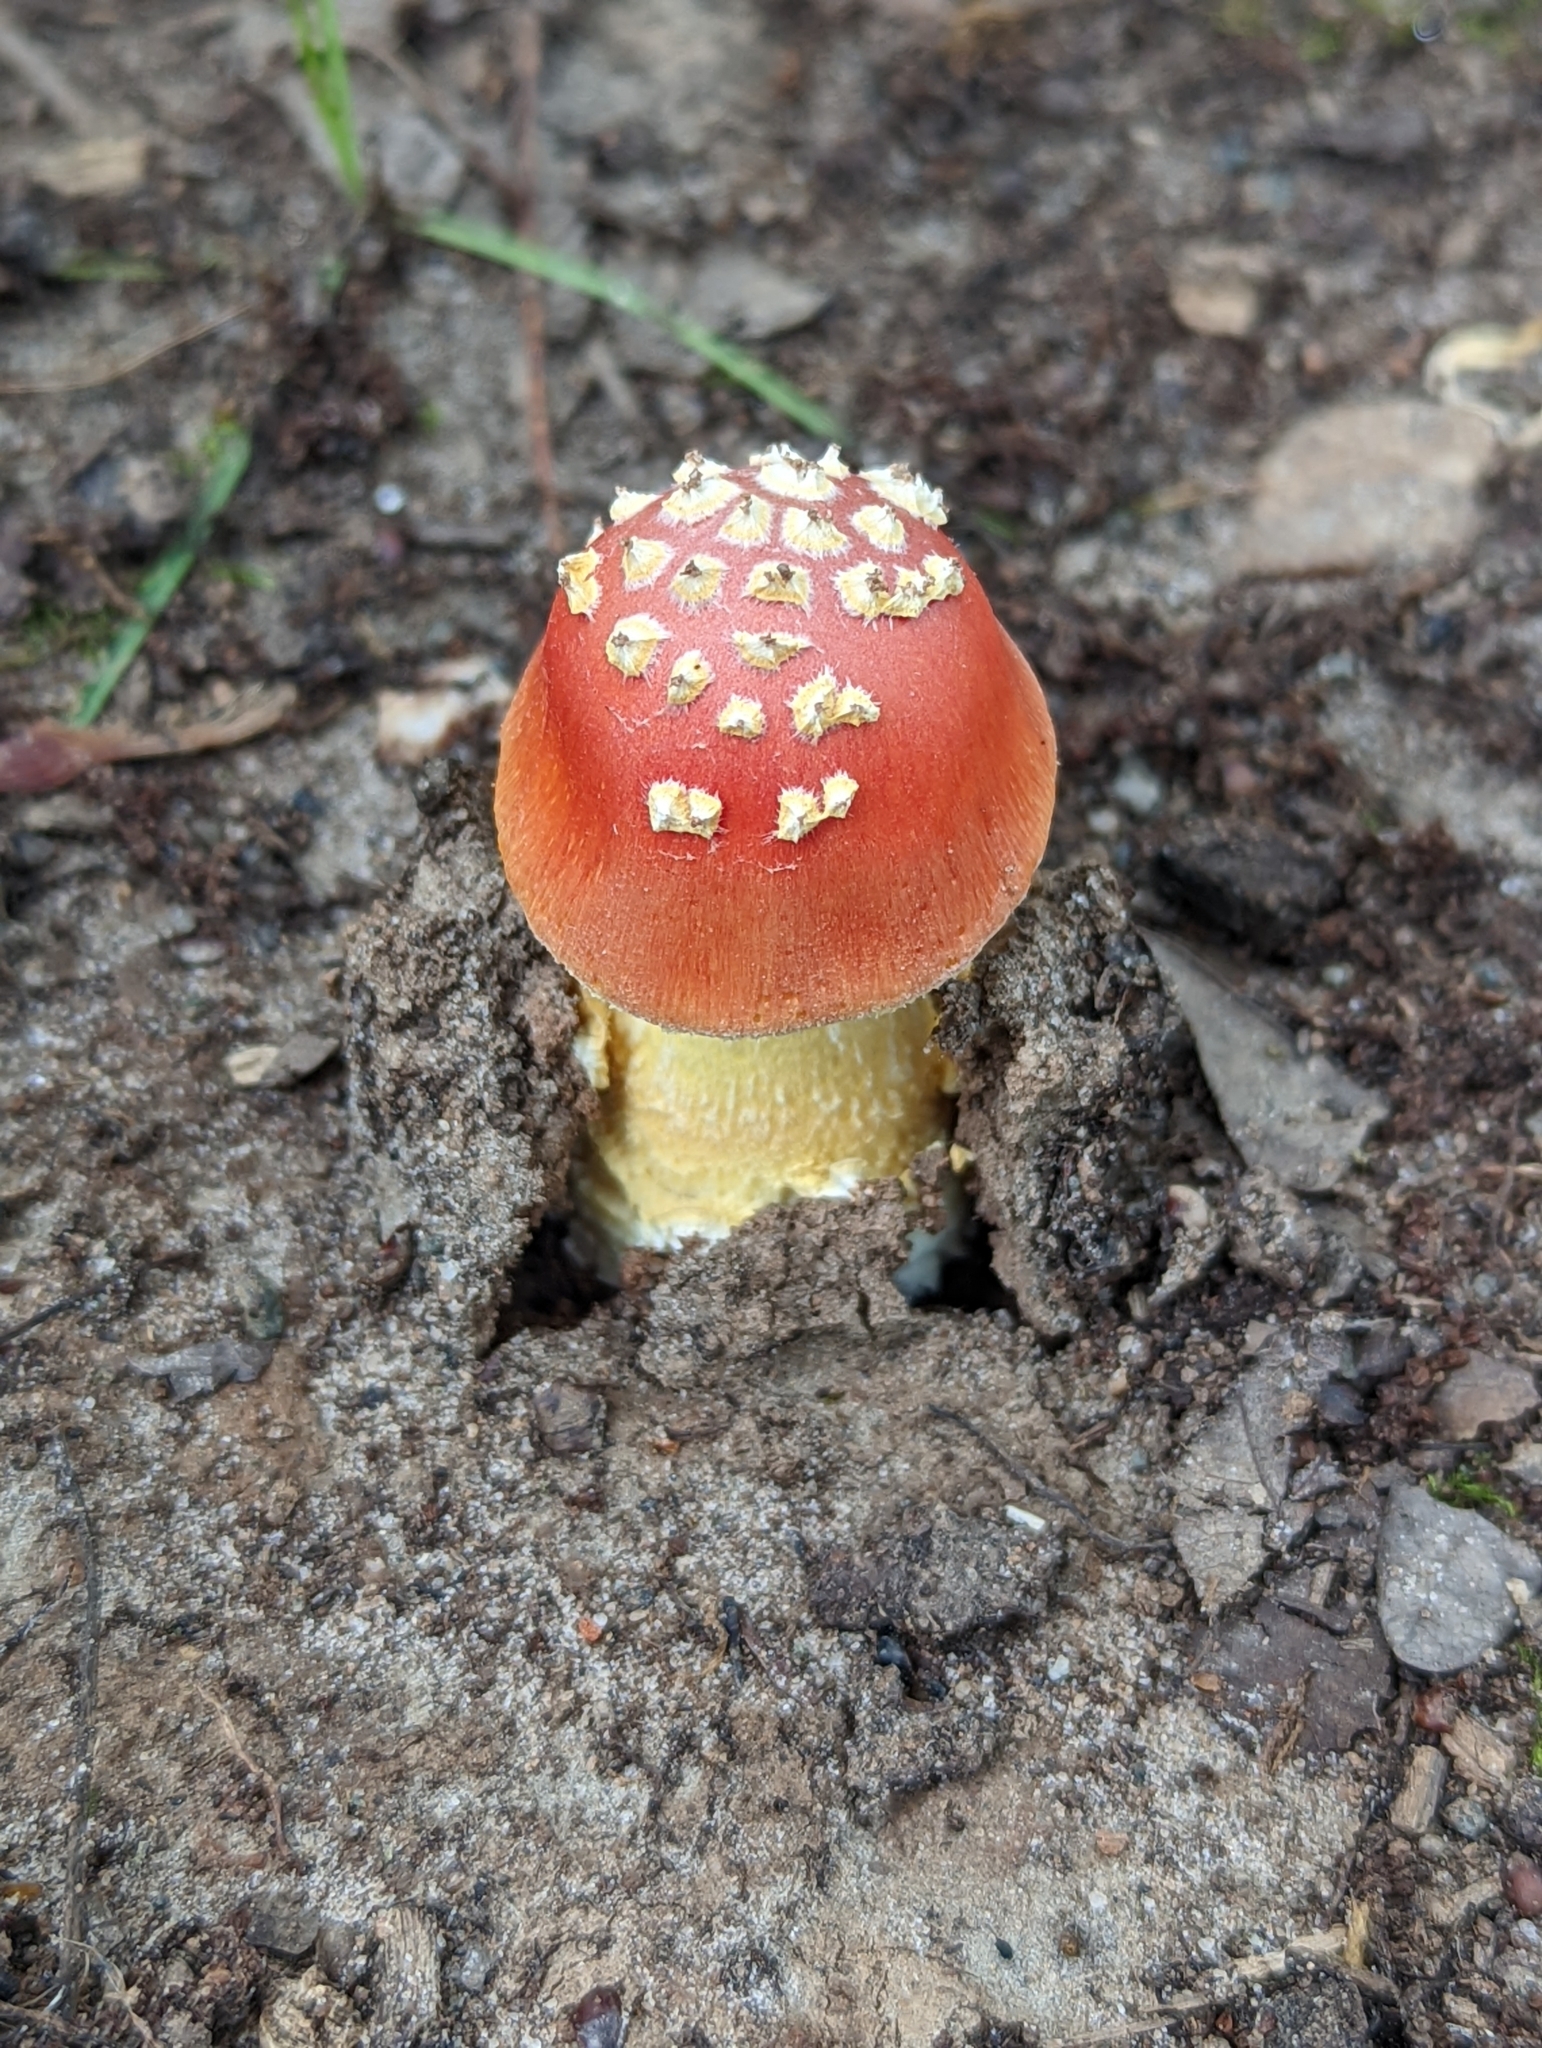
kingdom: Fungi
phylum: Basidiomycota
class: Agaricomycetes
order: Agaricales
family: Amanitaceae
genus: Amanita
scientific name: Amanita parcivolvata
